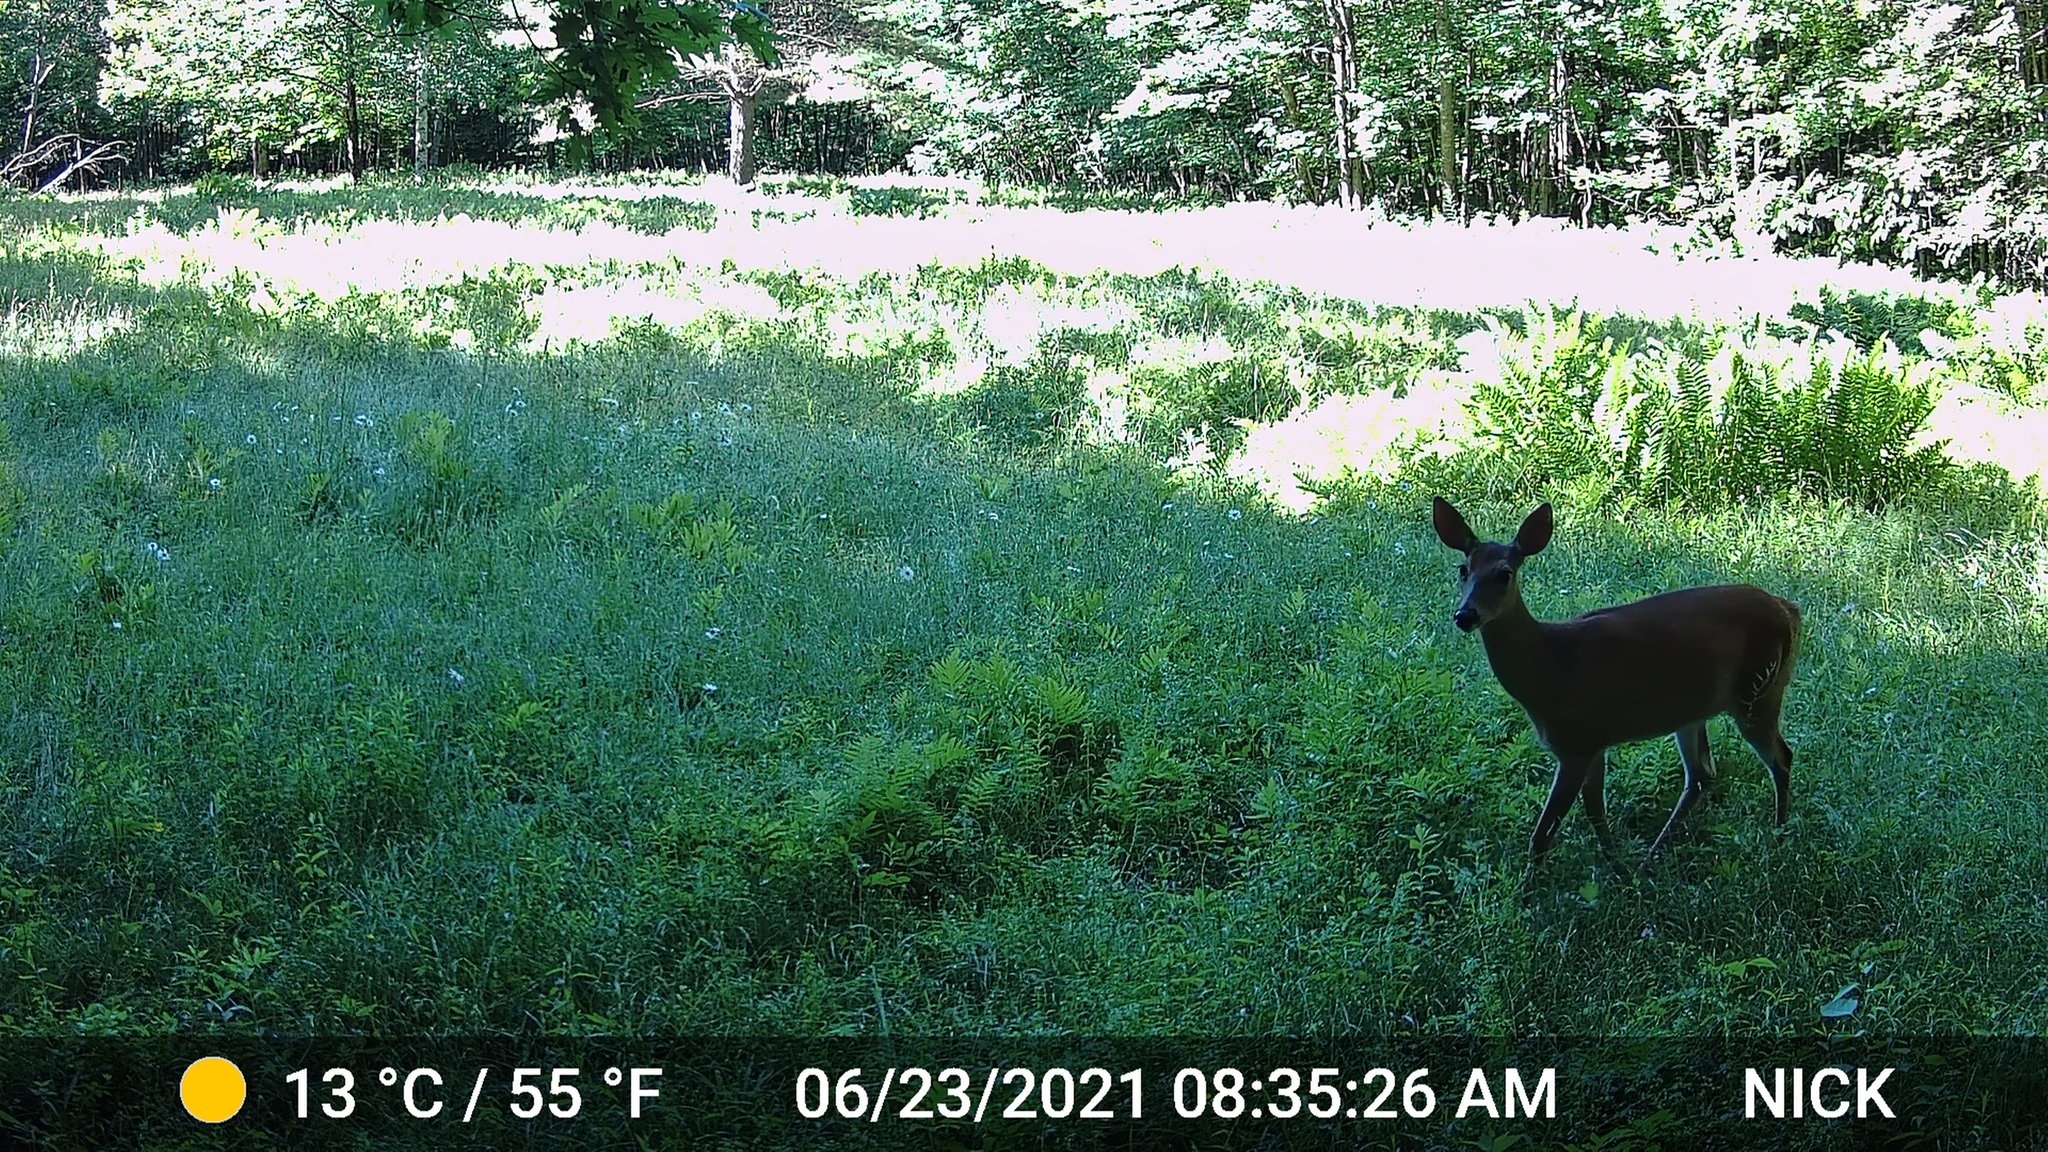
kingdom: Animalia
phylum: Chordata
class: Mammalia
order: Artiodactyla
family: Cervidae
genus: Odocoileus
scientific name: Odocoileus virginianus
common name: White-tailed deer
